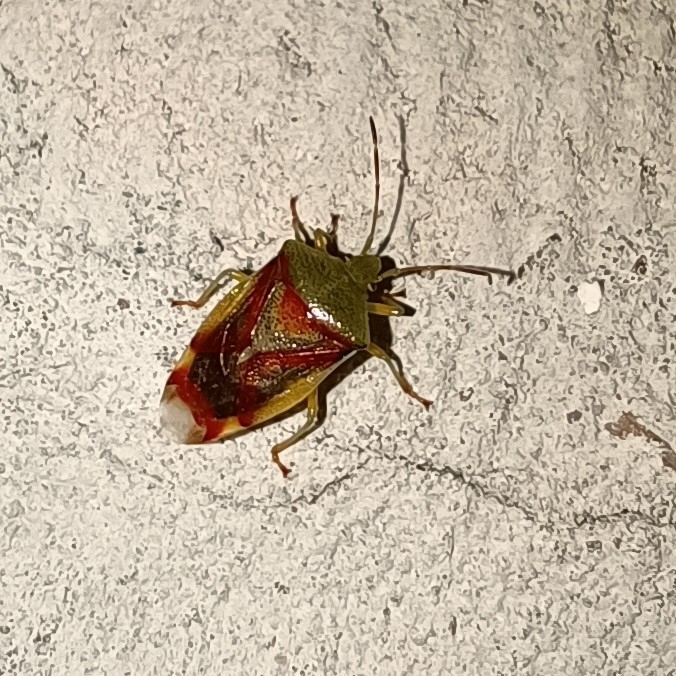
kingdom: Animalia
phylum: Arthropoda
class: Insecta
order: Hemiptera
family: Acanthosomatidae
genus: Elasmostethus
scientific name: Elasmostethus interstinctus
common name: Birch shieldbug
